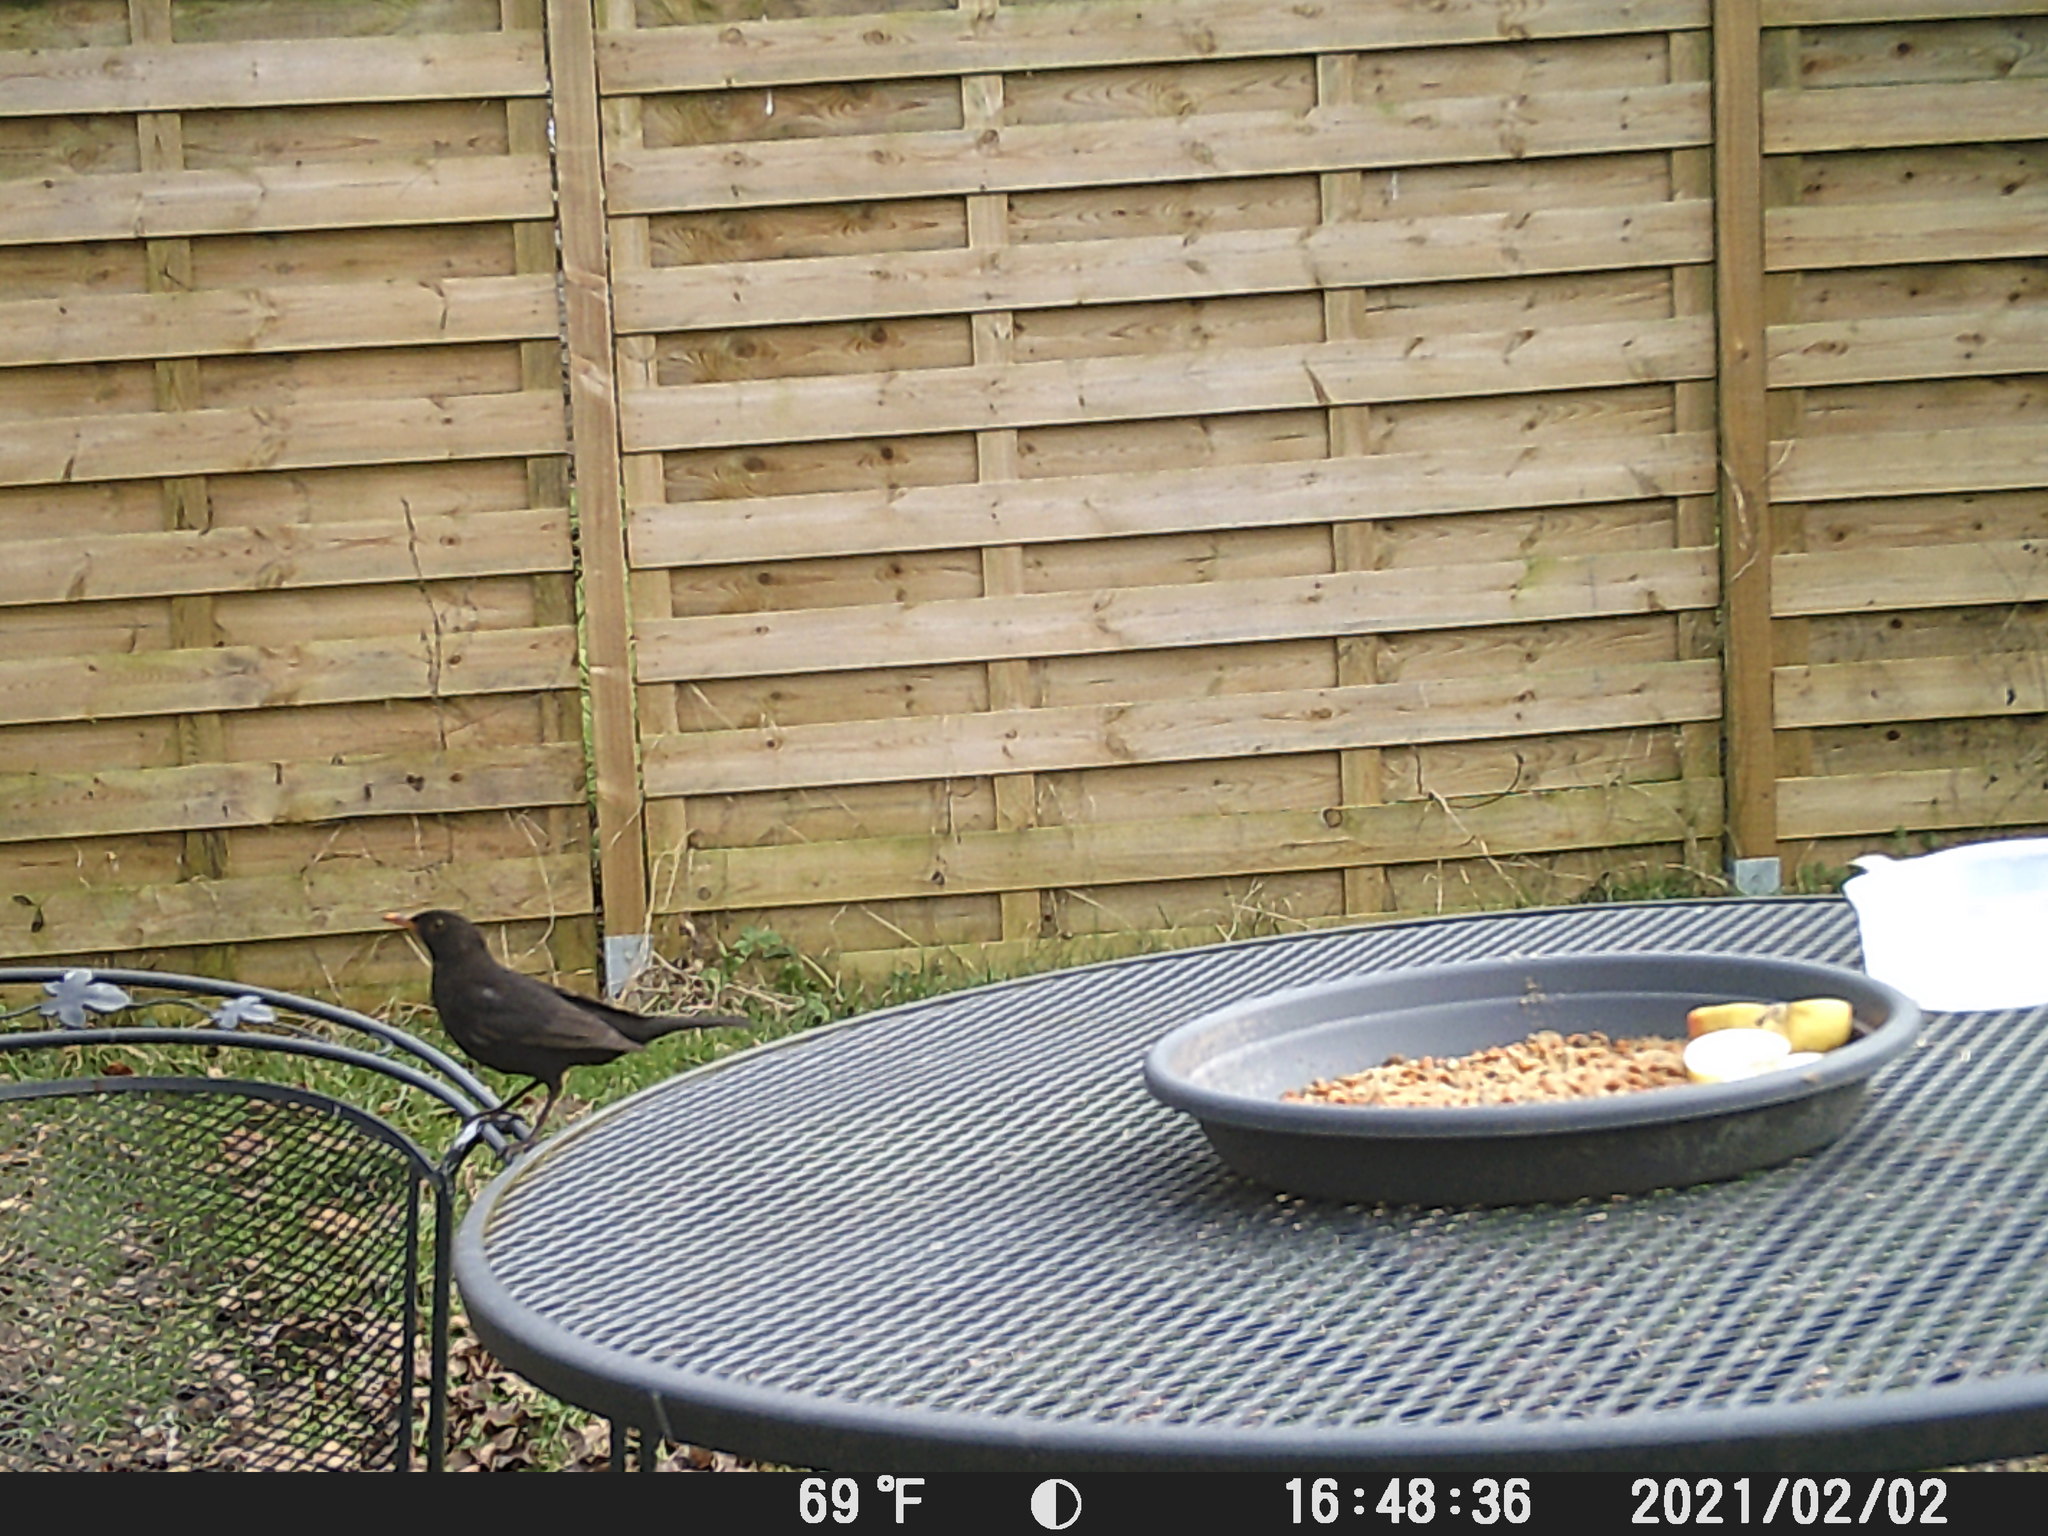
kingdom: Animalia
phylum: Chordata
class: Aves
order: Passeriformes
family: Turdidae
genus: Turdus
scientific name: Turdus merula
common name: Common blackbird
